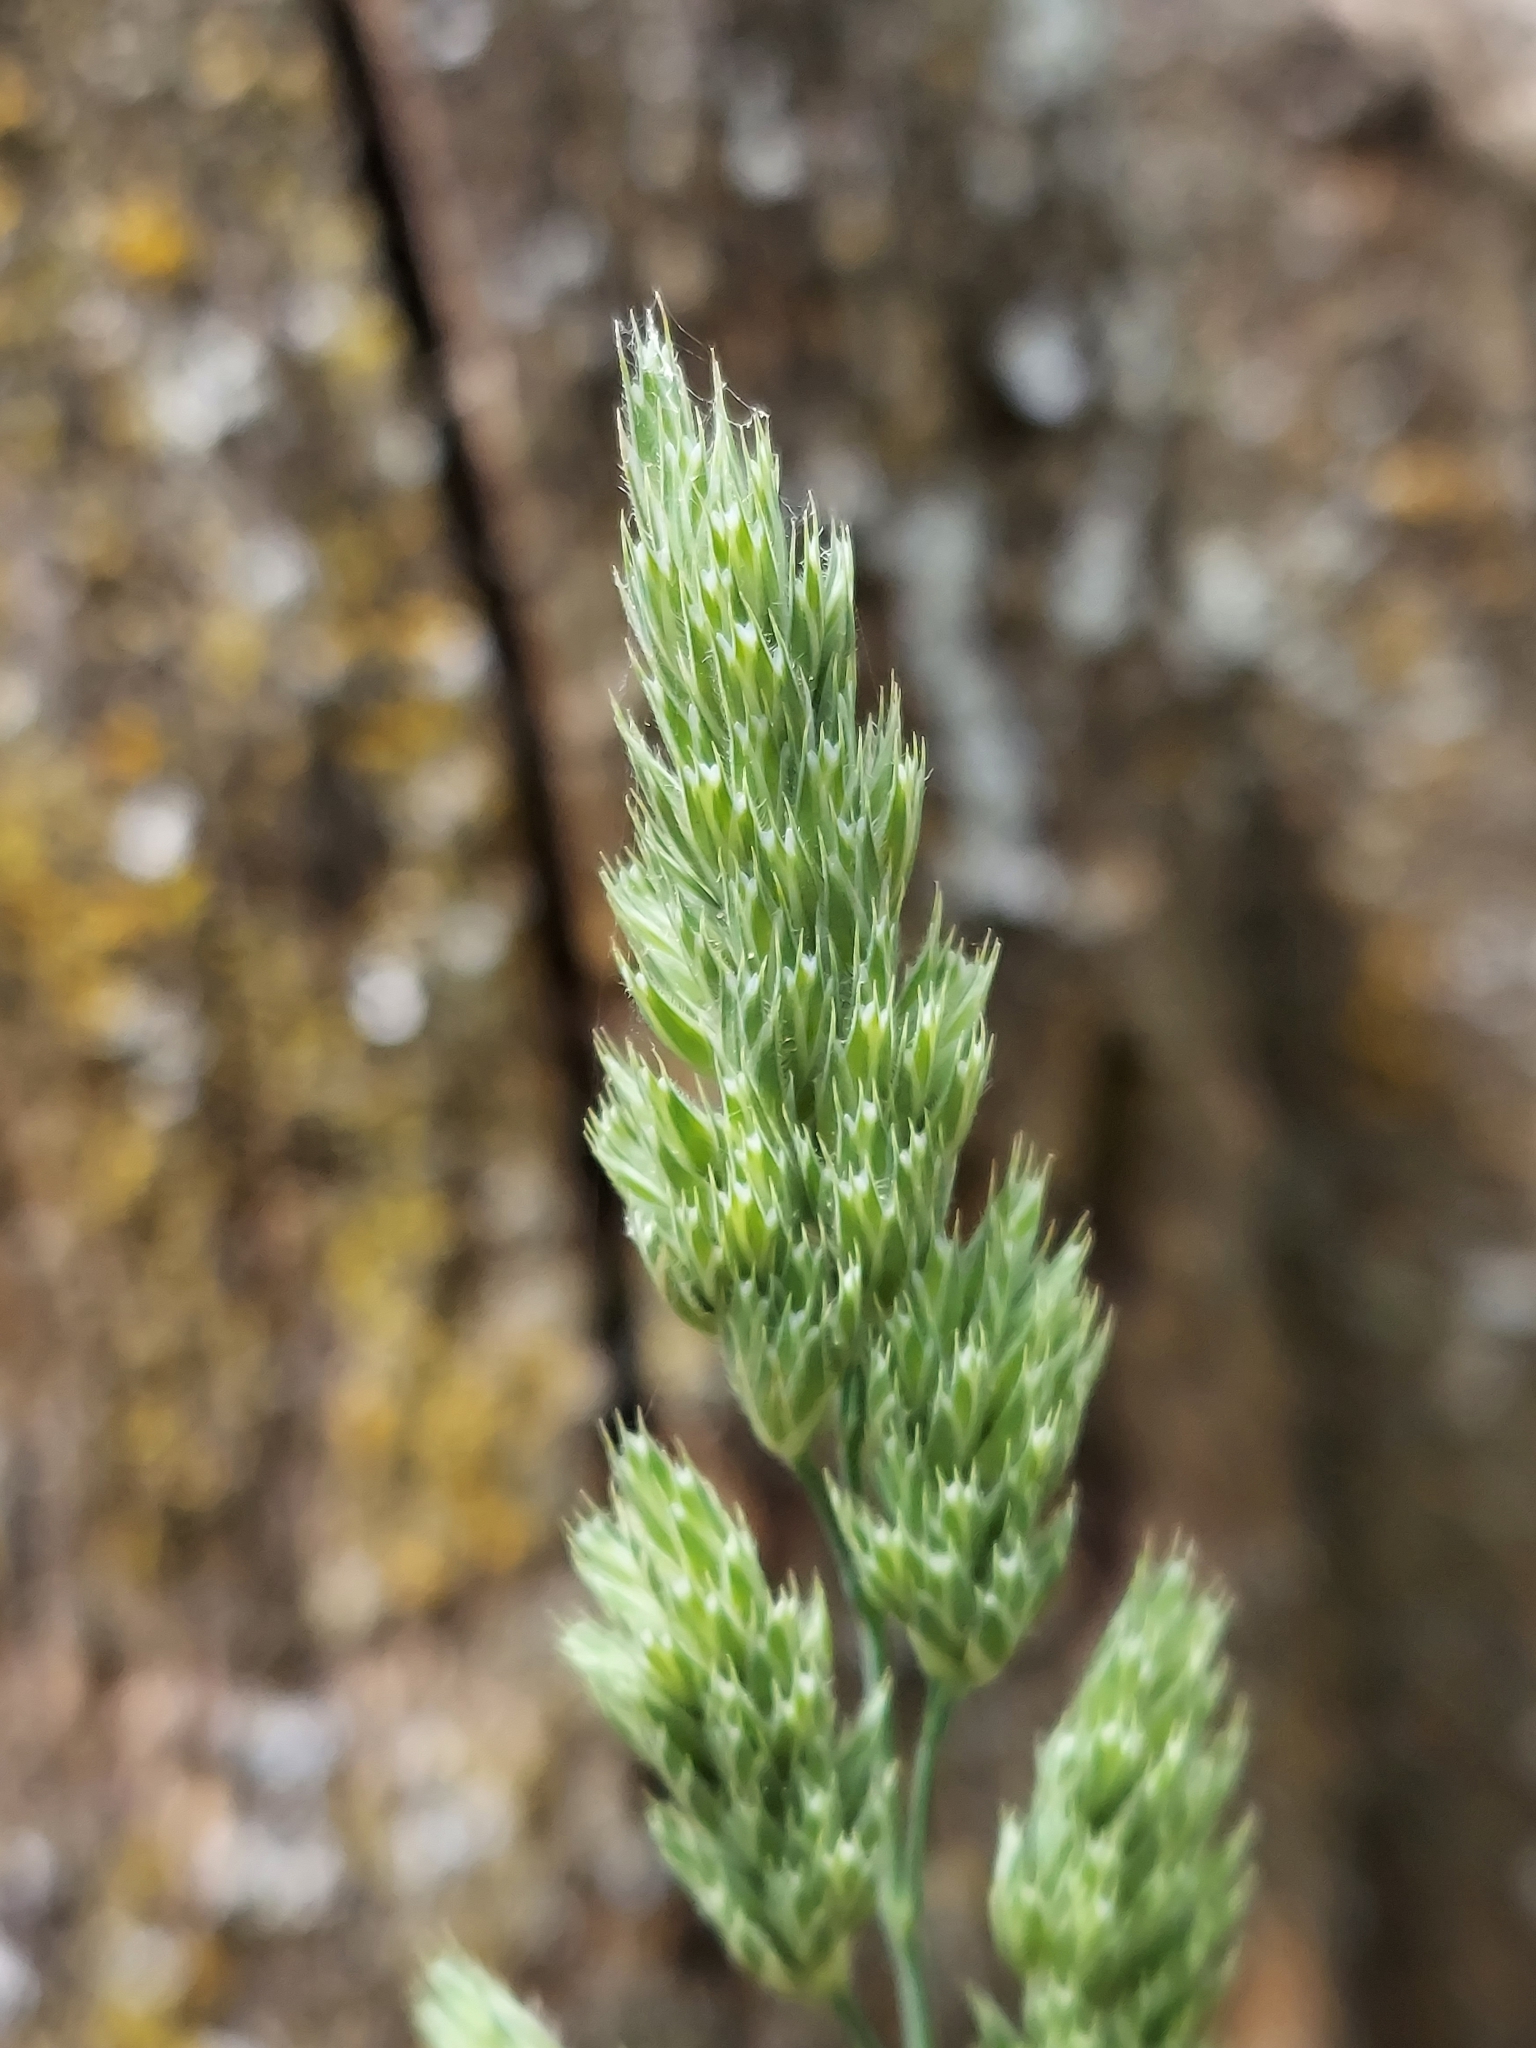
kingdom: Plantae
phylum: Tracheophyta
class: Liliopsida
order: Poales
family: Poaceae
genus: Dactylis
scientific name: Dactylis glomerata
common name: Orchardgrass
